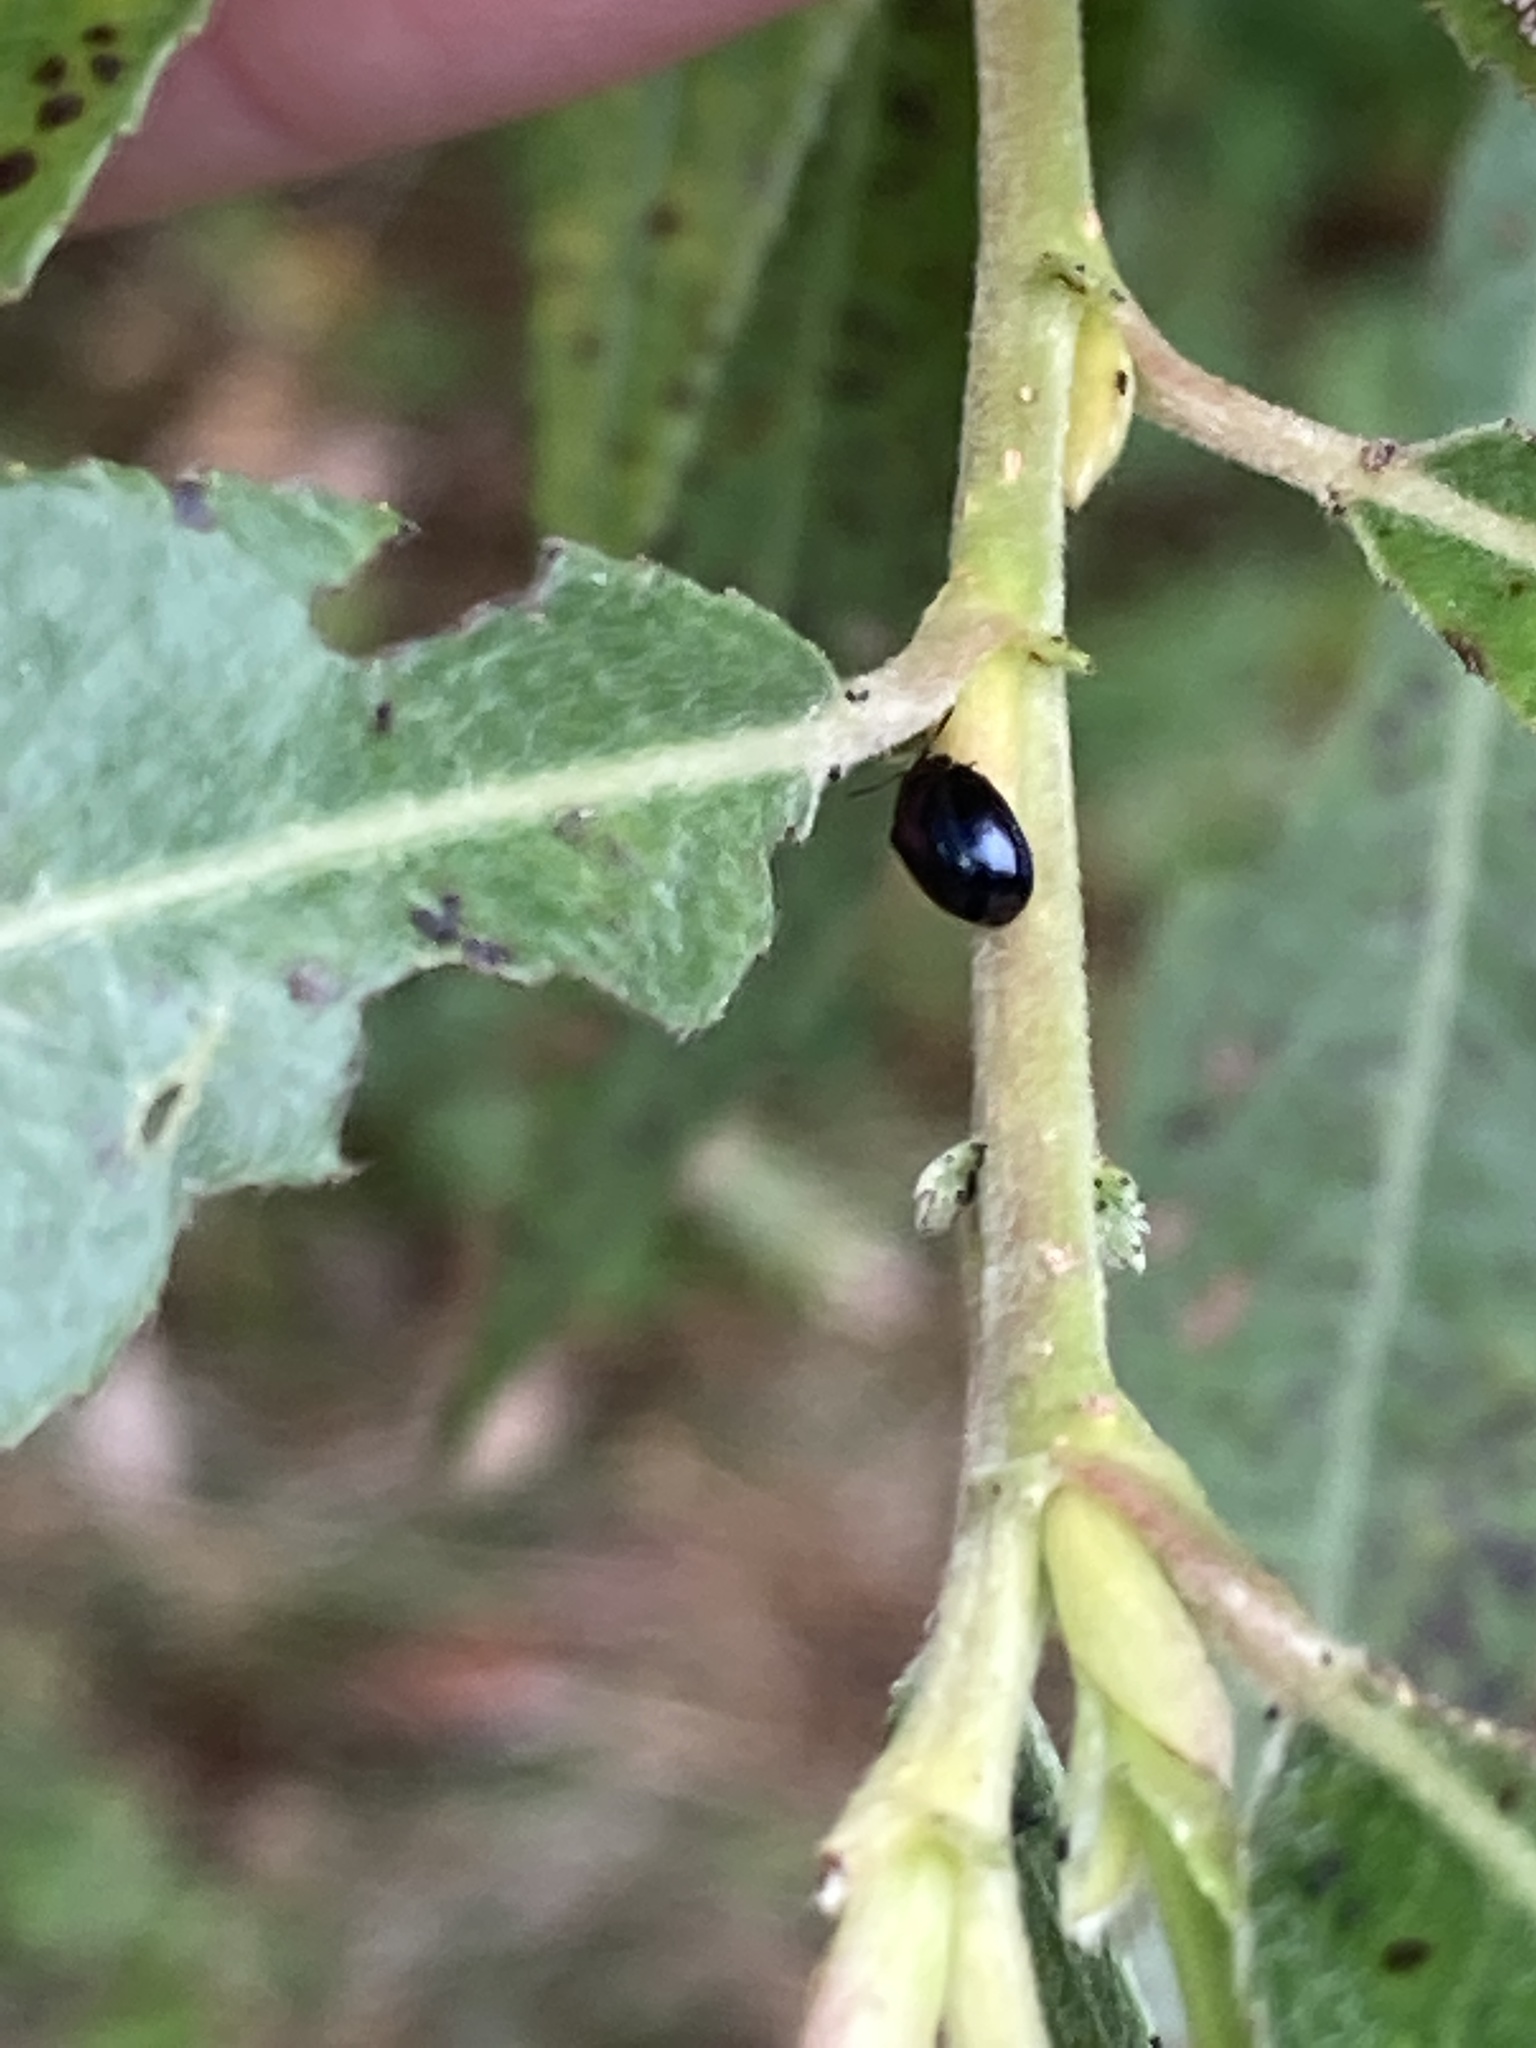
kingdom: Animalia
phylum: Arthropoda
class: Insecta
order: Coleoptera
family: Chrysomelidae
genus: Plagiodera
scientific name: Plagiodera versicolora
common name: Imported willow leaf beetle
